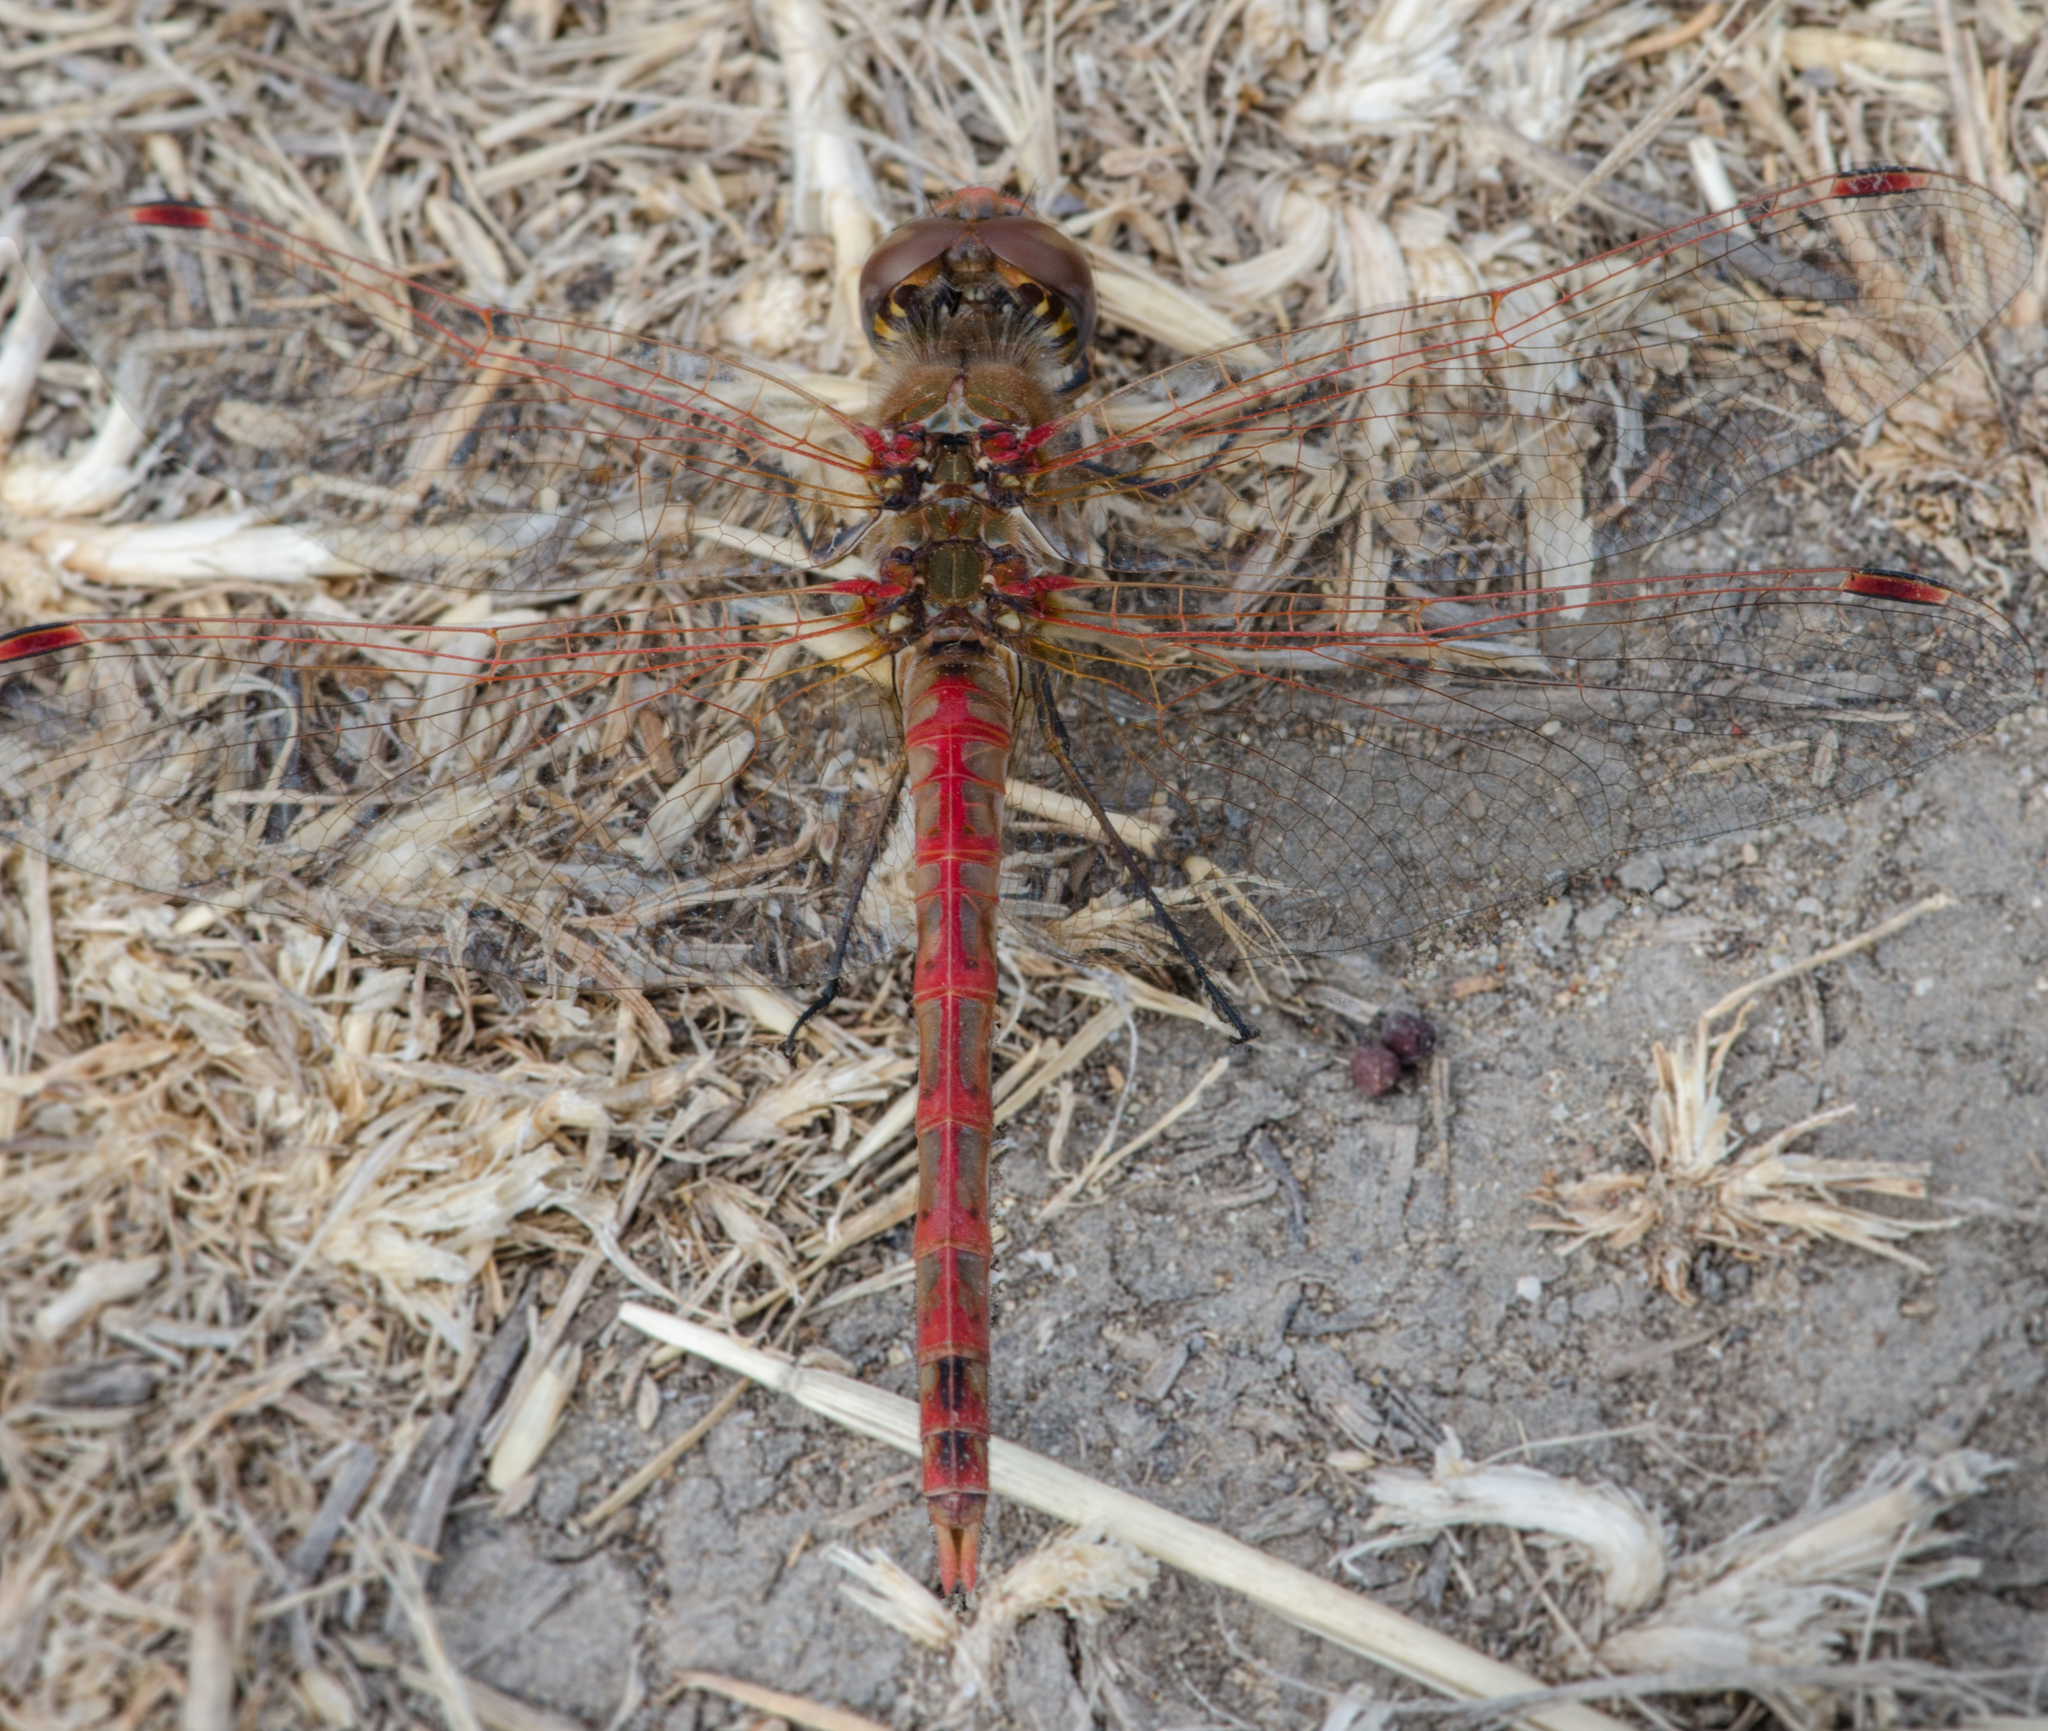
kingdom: Animalia
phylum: Arthropoda
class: Insecta
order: Odonata
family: Libellulidae
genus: Sympetrum
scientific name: Sympetrum corruptum
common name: Variegated meadowhawk
